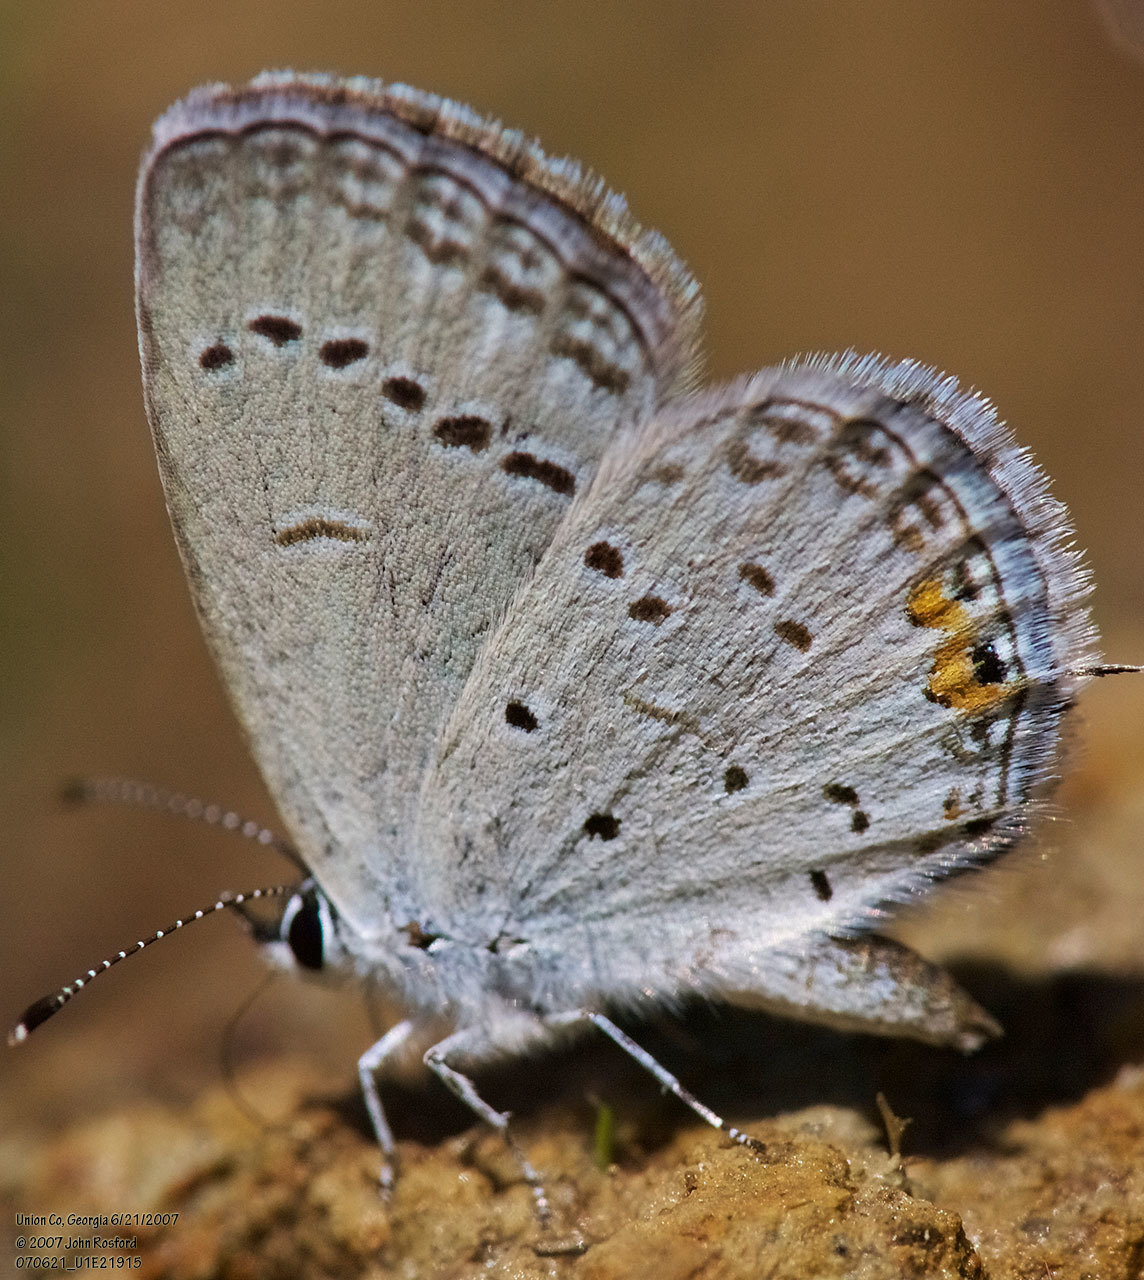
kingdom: Animalia
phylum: Arthropoda
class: Insecta
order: Lepidoptera
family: Lycaenidae
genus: Elkalyce
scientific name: Elkalyce comyntas
